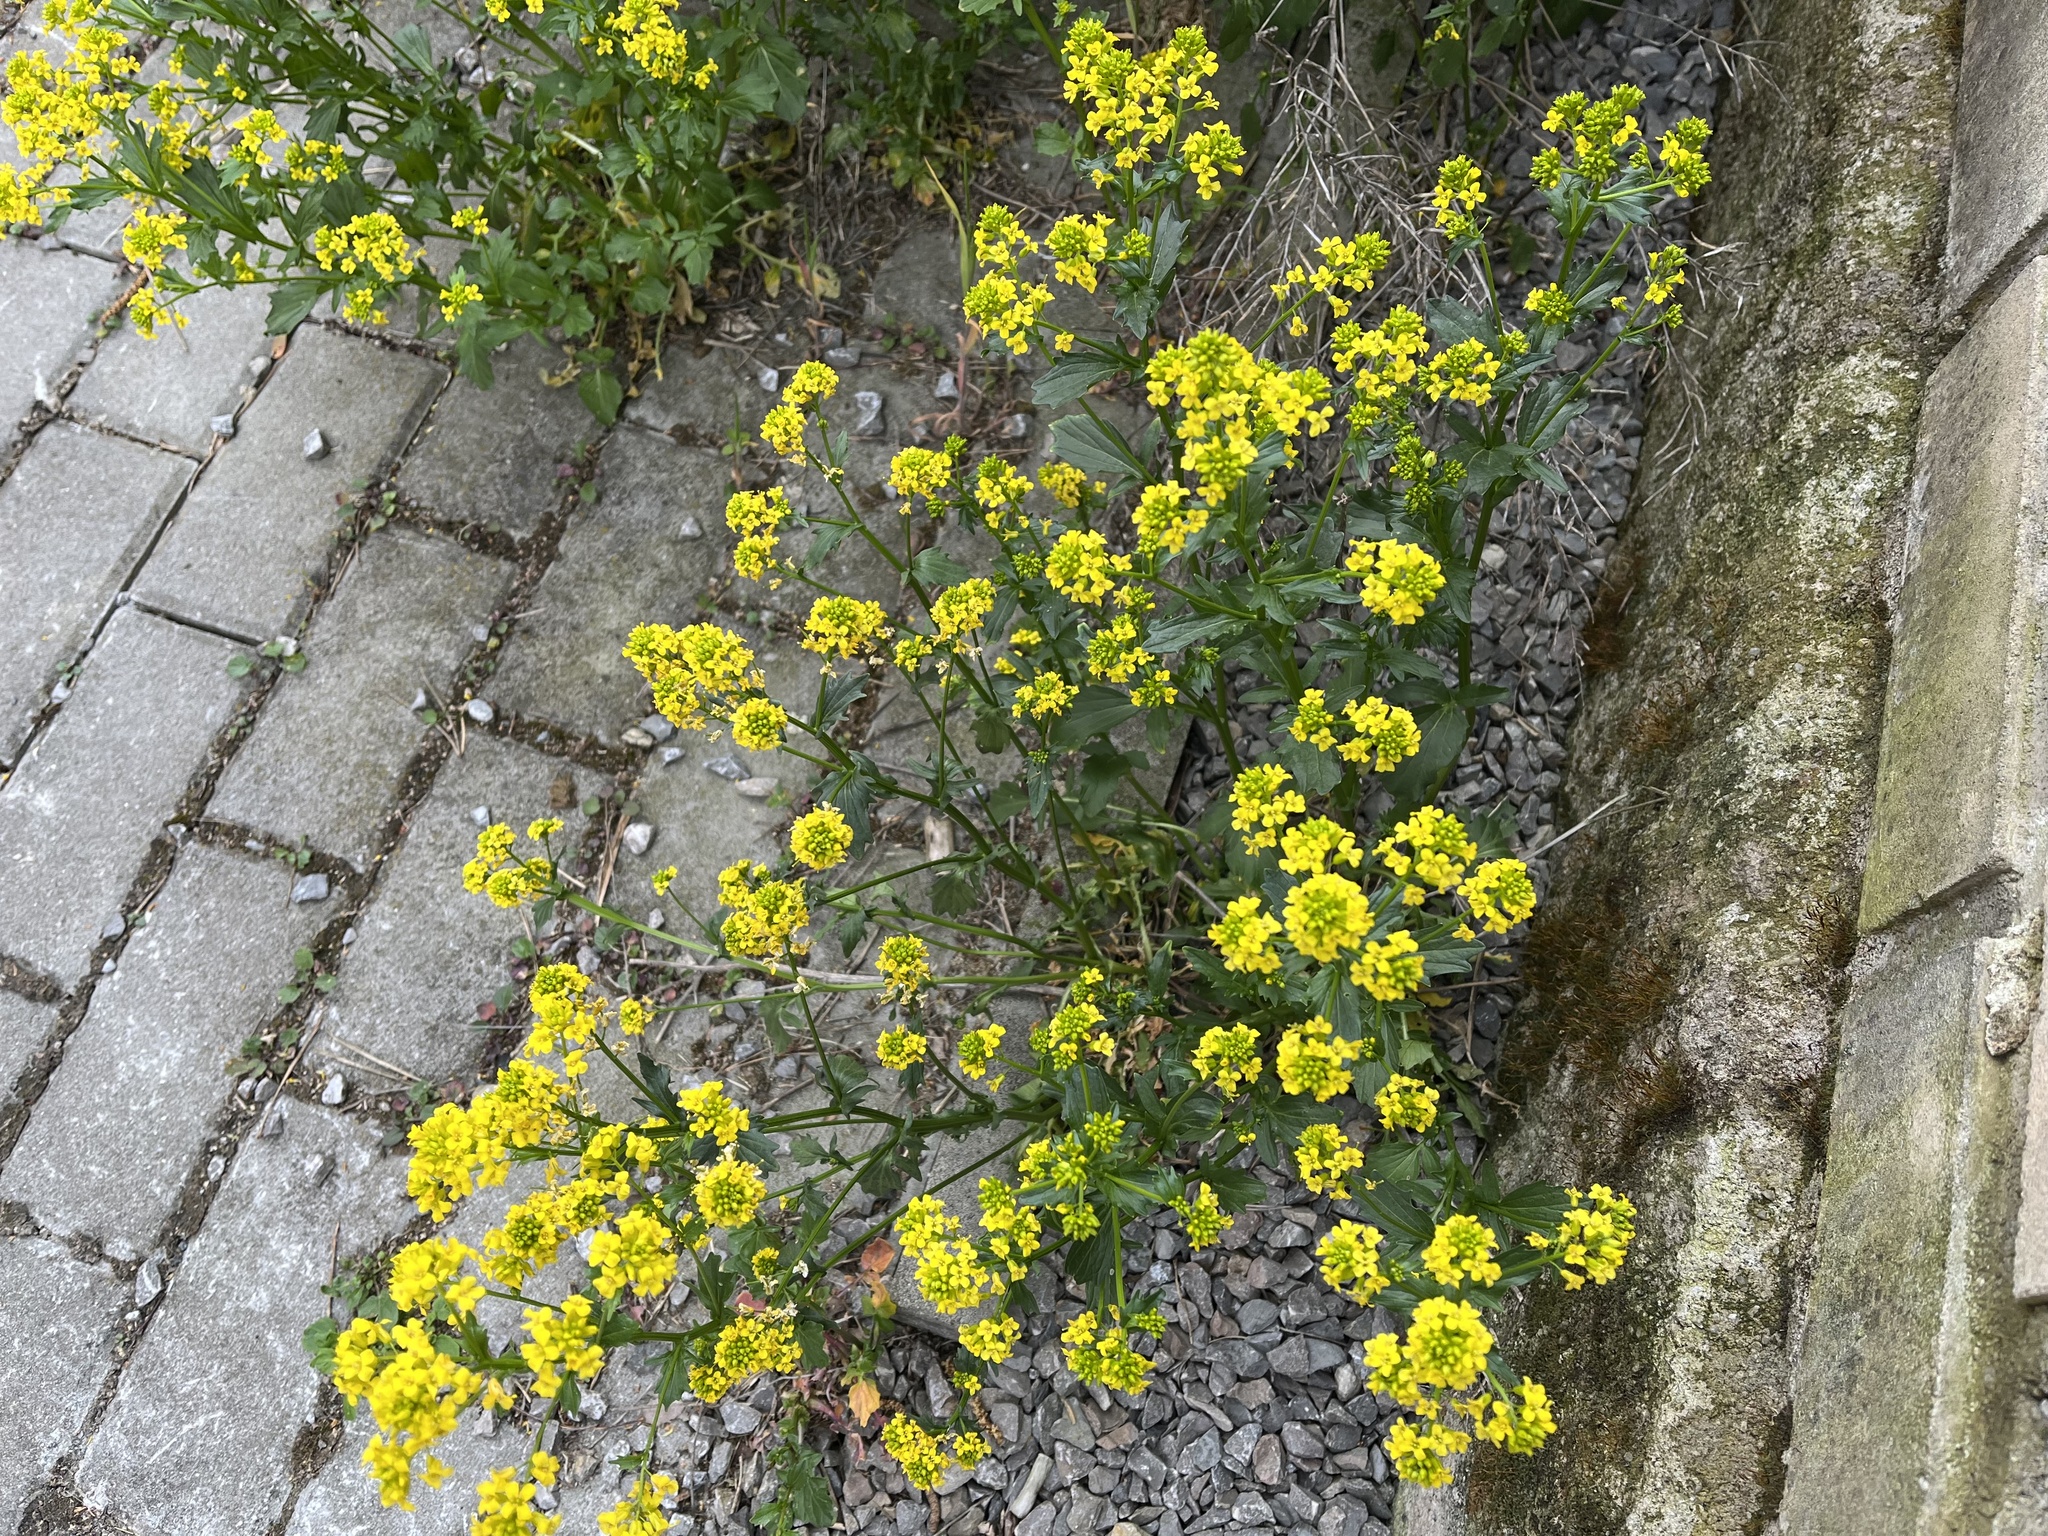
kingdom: Plantae
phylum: Tracheophyta
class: Magnoliopsida
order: Brassicales
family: Brassicaceae
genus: Barbarea
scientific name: Barbarea vulgaris
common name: Cressy-greens
